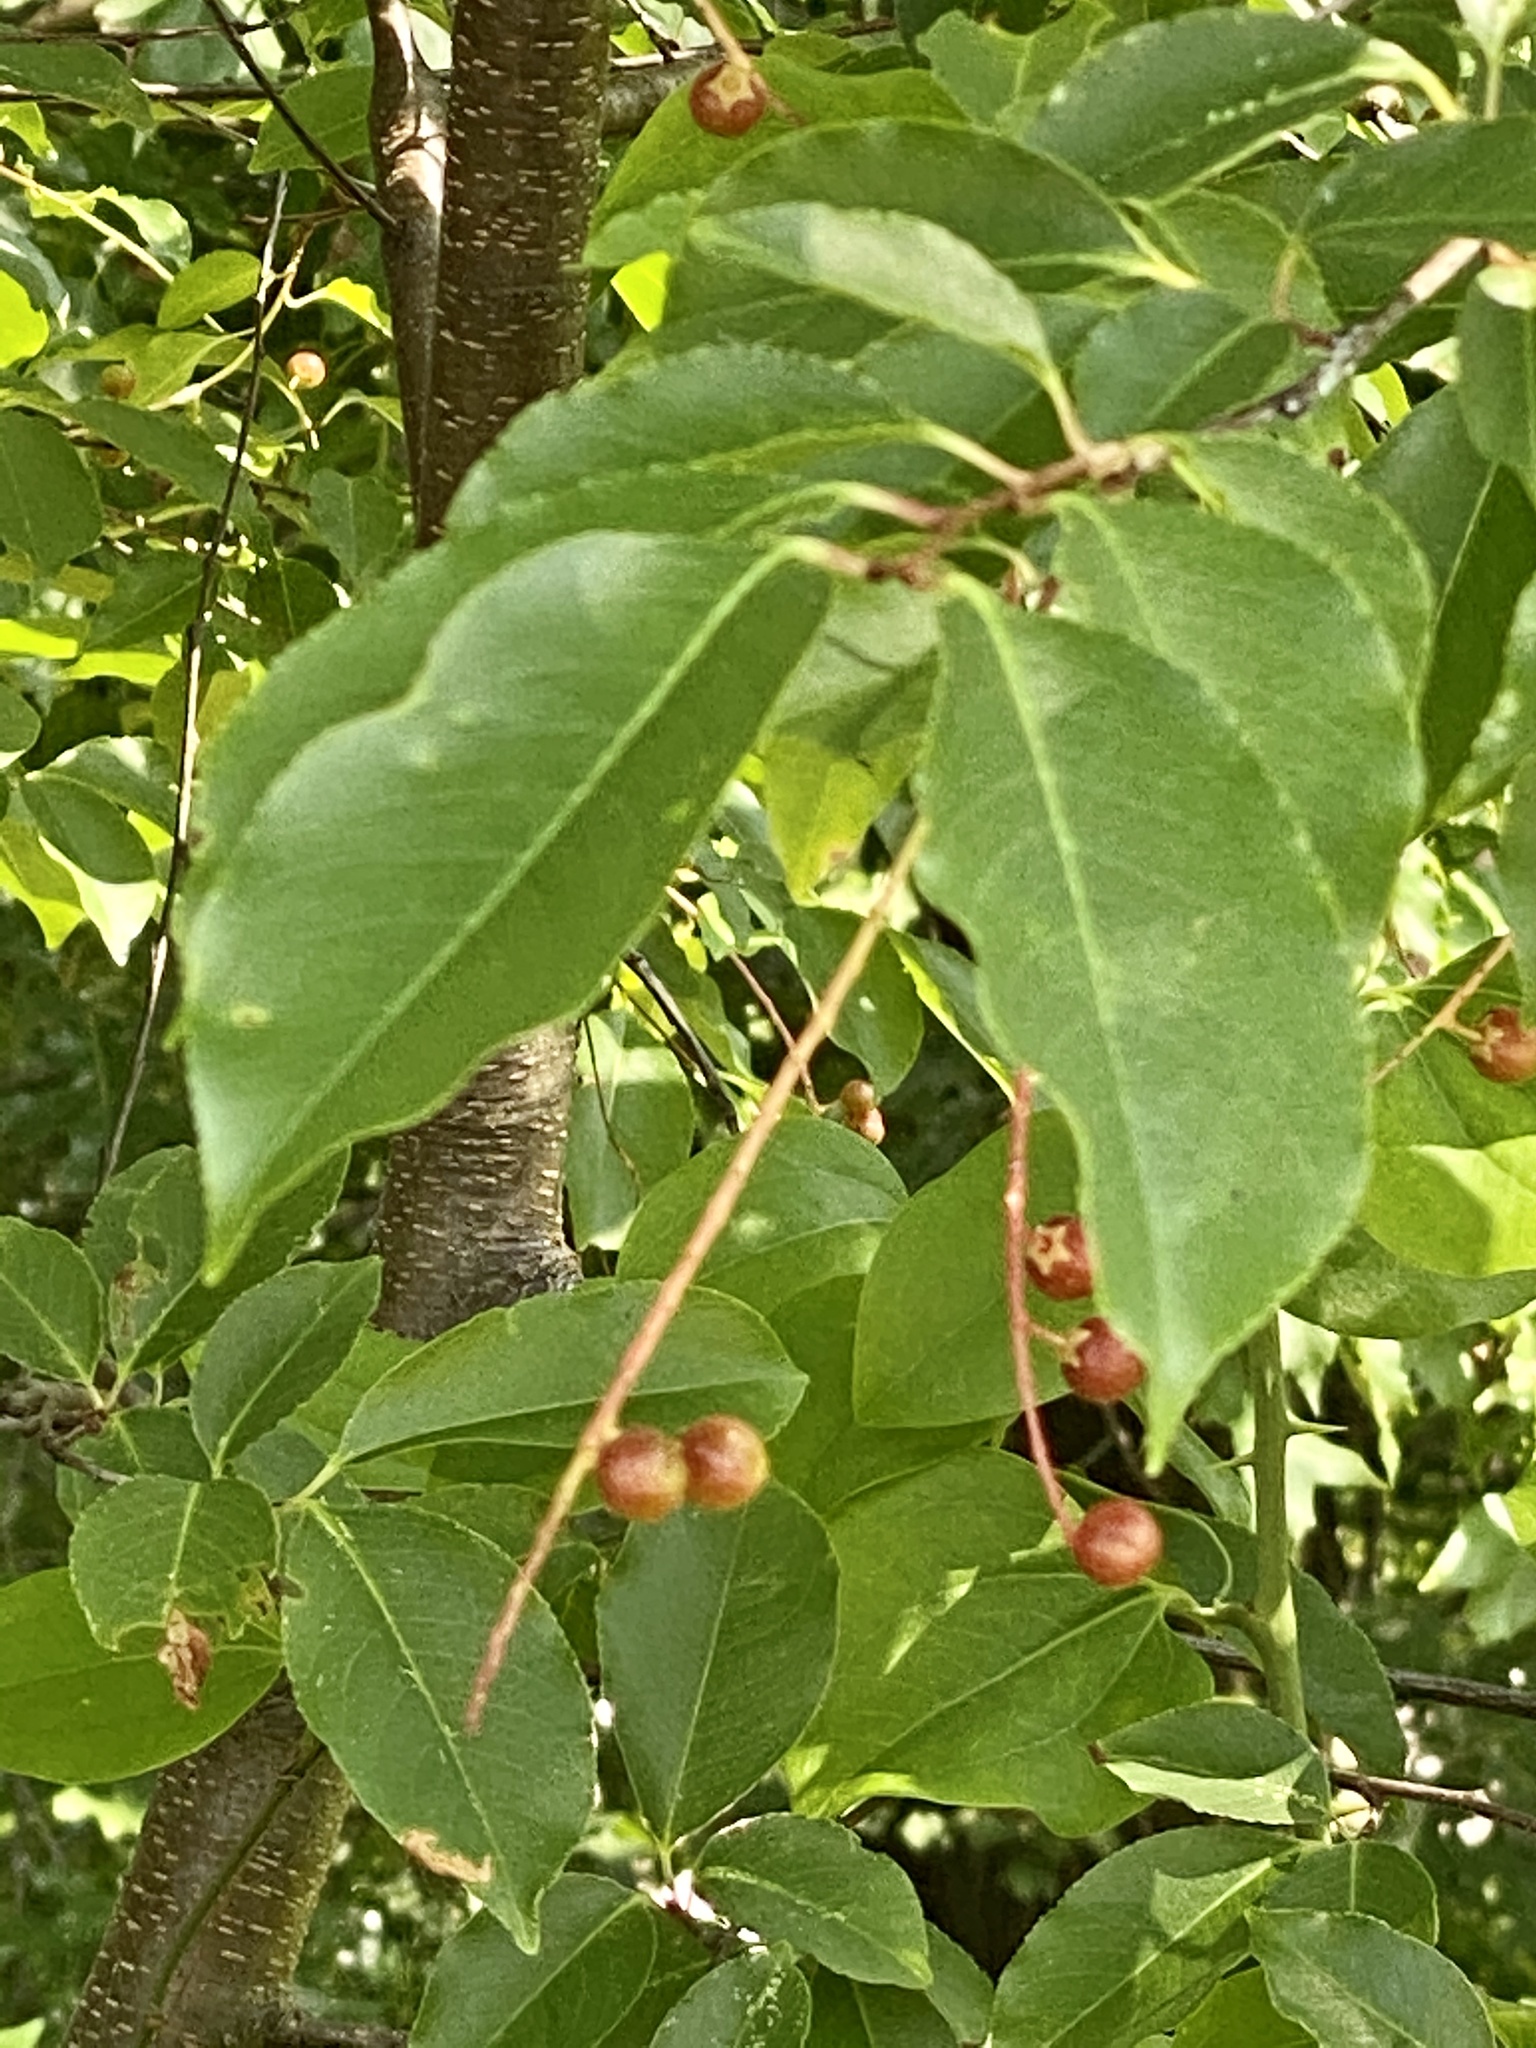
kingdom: Plantae
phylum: Tracheophyta
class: Magnoliopsida
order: Rosales
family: Rosaceae
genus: Prunus
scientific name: Prunus serotina
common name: Black cherry
